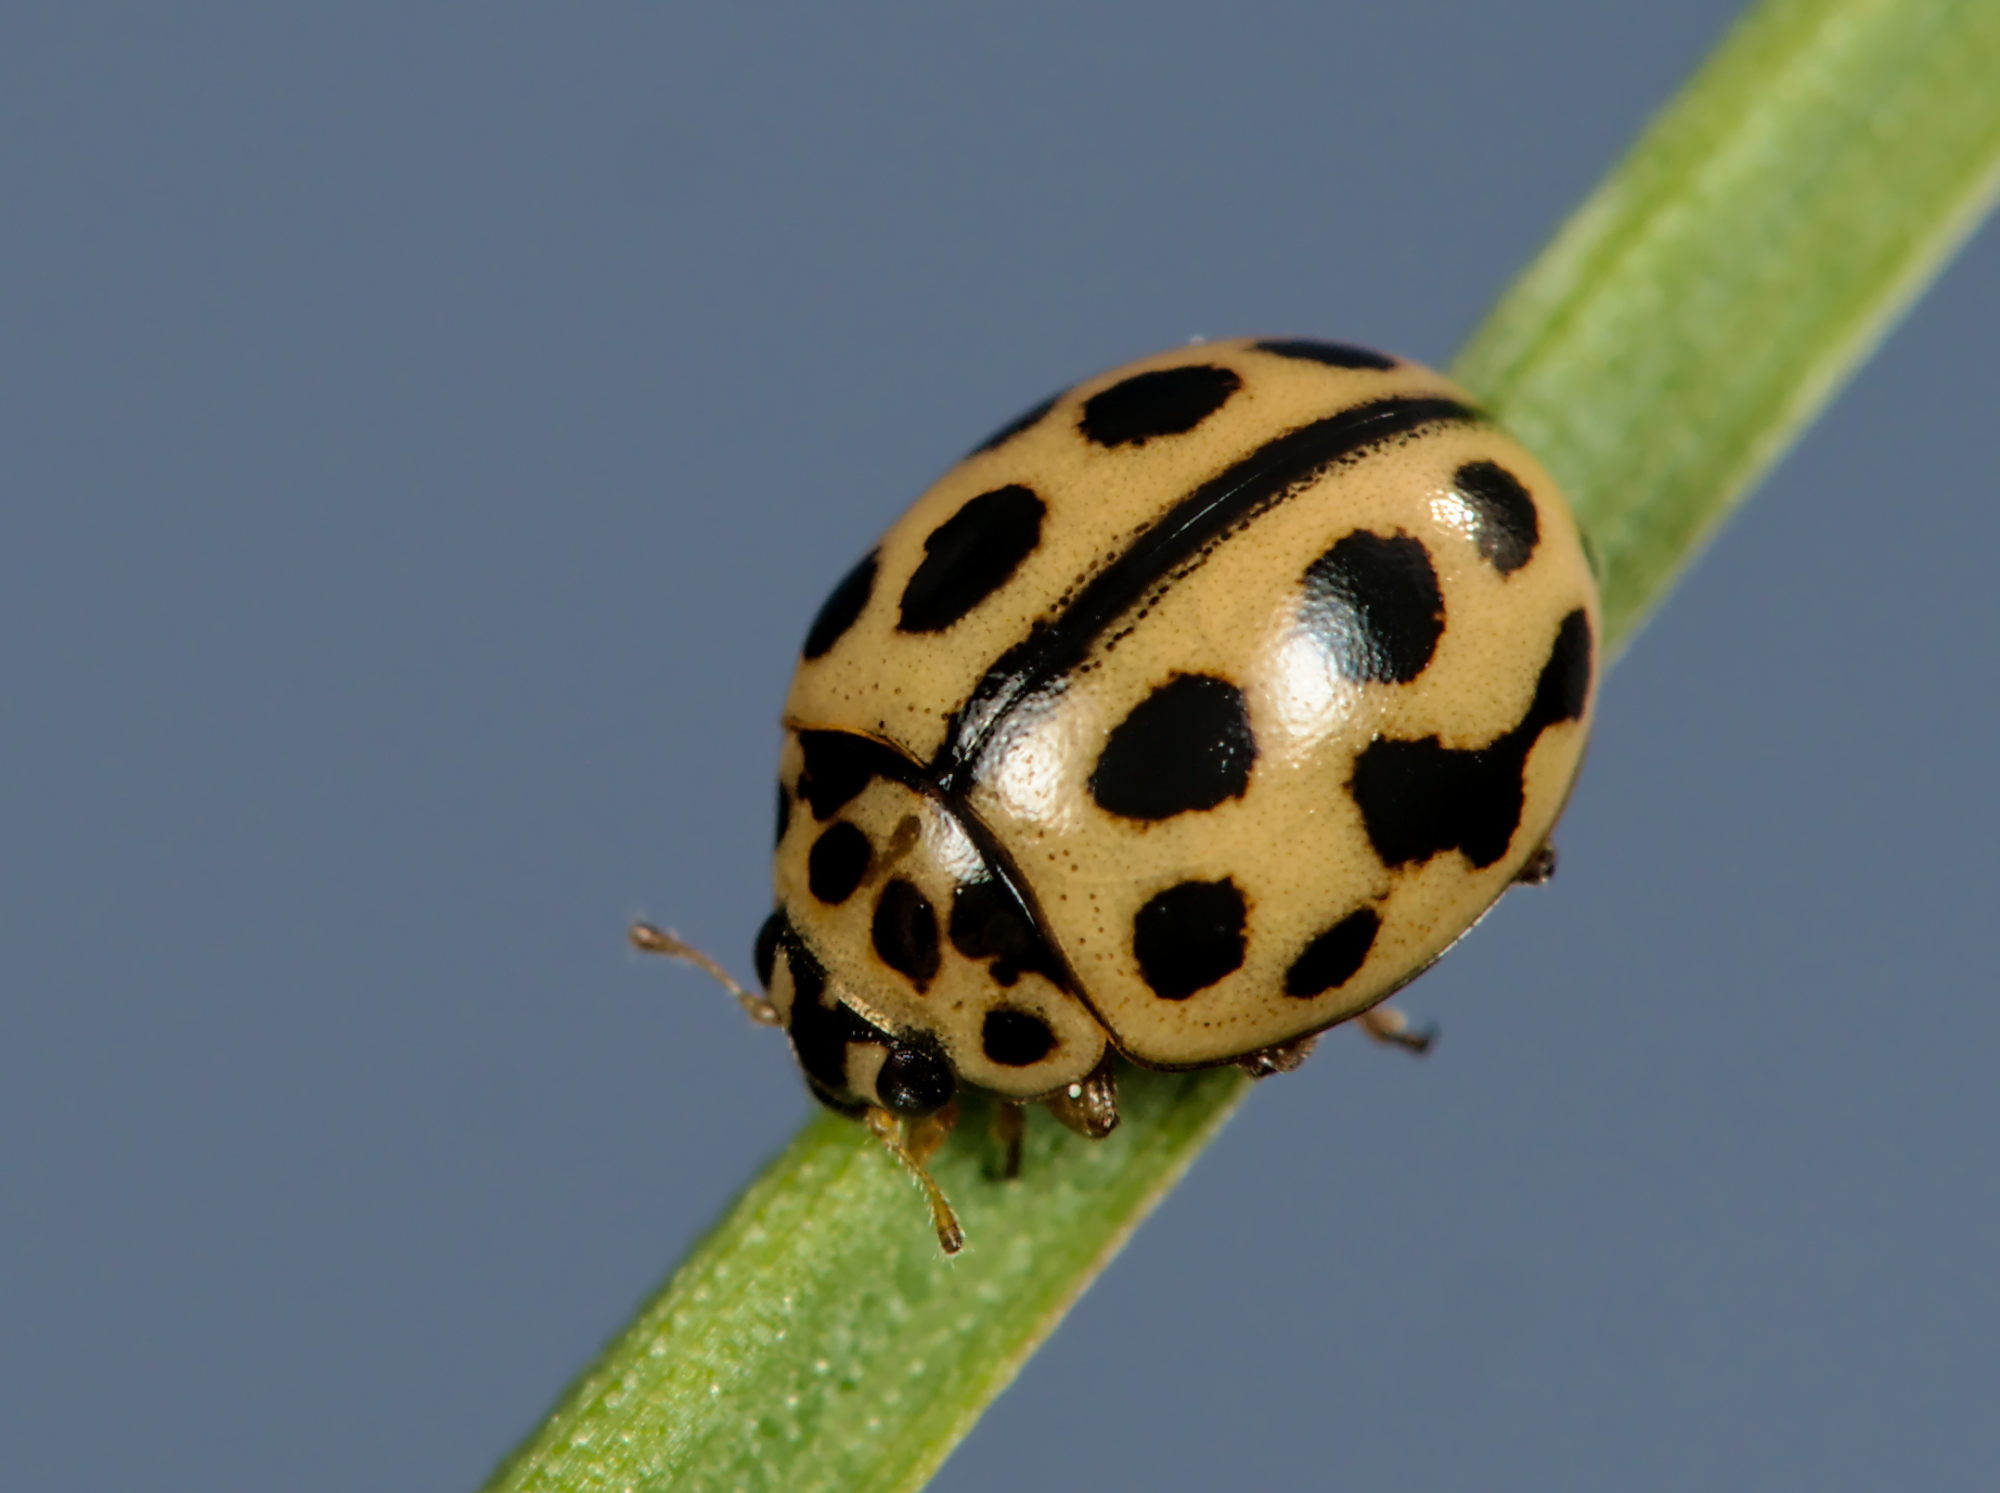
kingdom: Animalia
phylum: Arthropoda
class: Insecta
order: Coleoptera
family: Coccinellidae
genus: Tytthaspis
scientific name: Tytthaspis sedecimpunctata
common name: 16-spot ladybird
